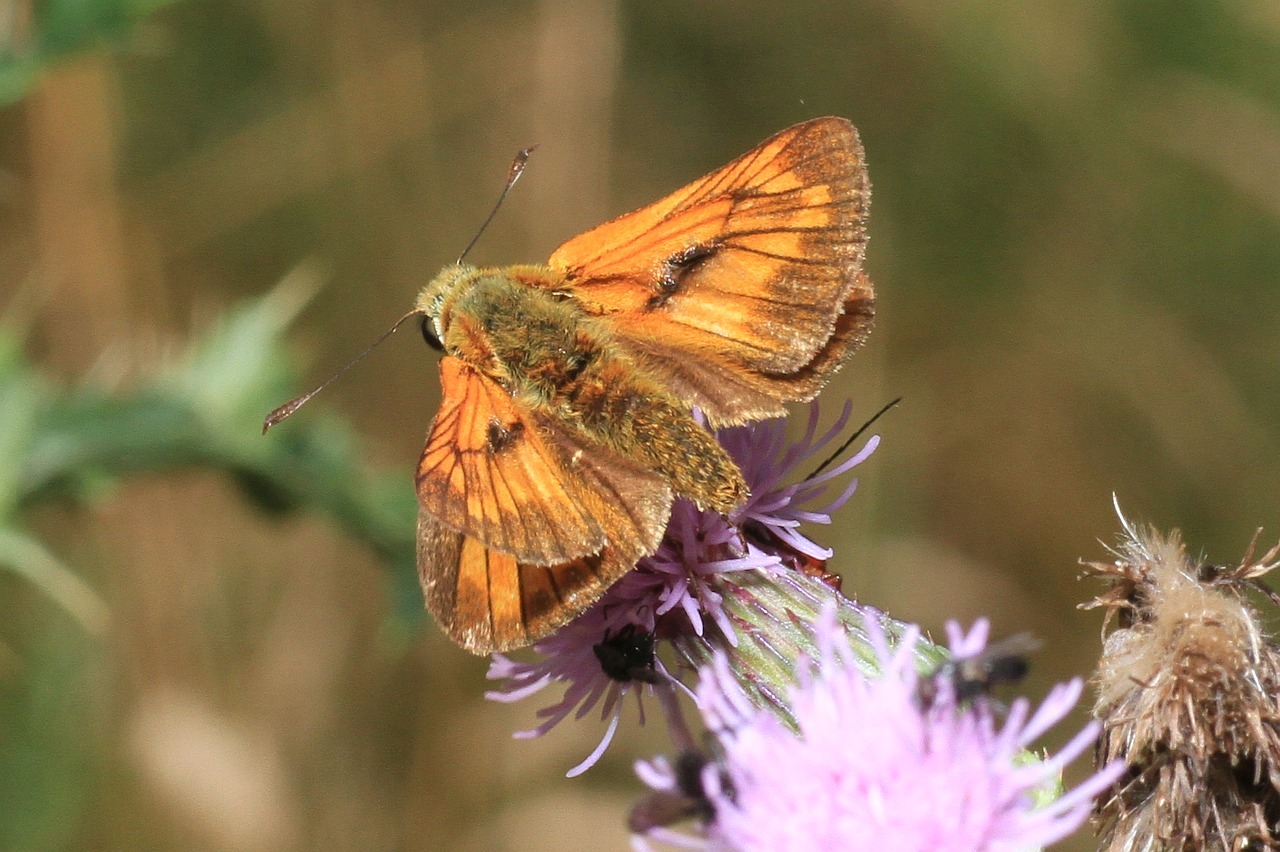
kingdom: Animalia
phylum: Arthropoda
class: Insecta
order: Lepidoptera
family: Hesperiidae
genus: Ochlodes
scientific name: Ochlodes venata
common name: Large skipper
